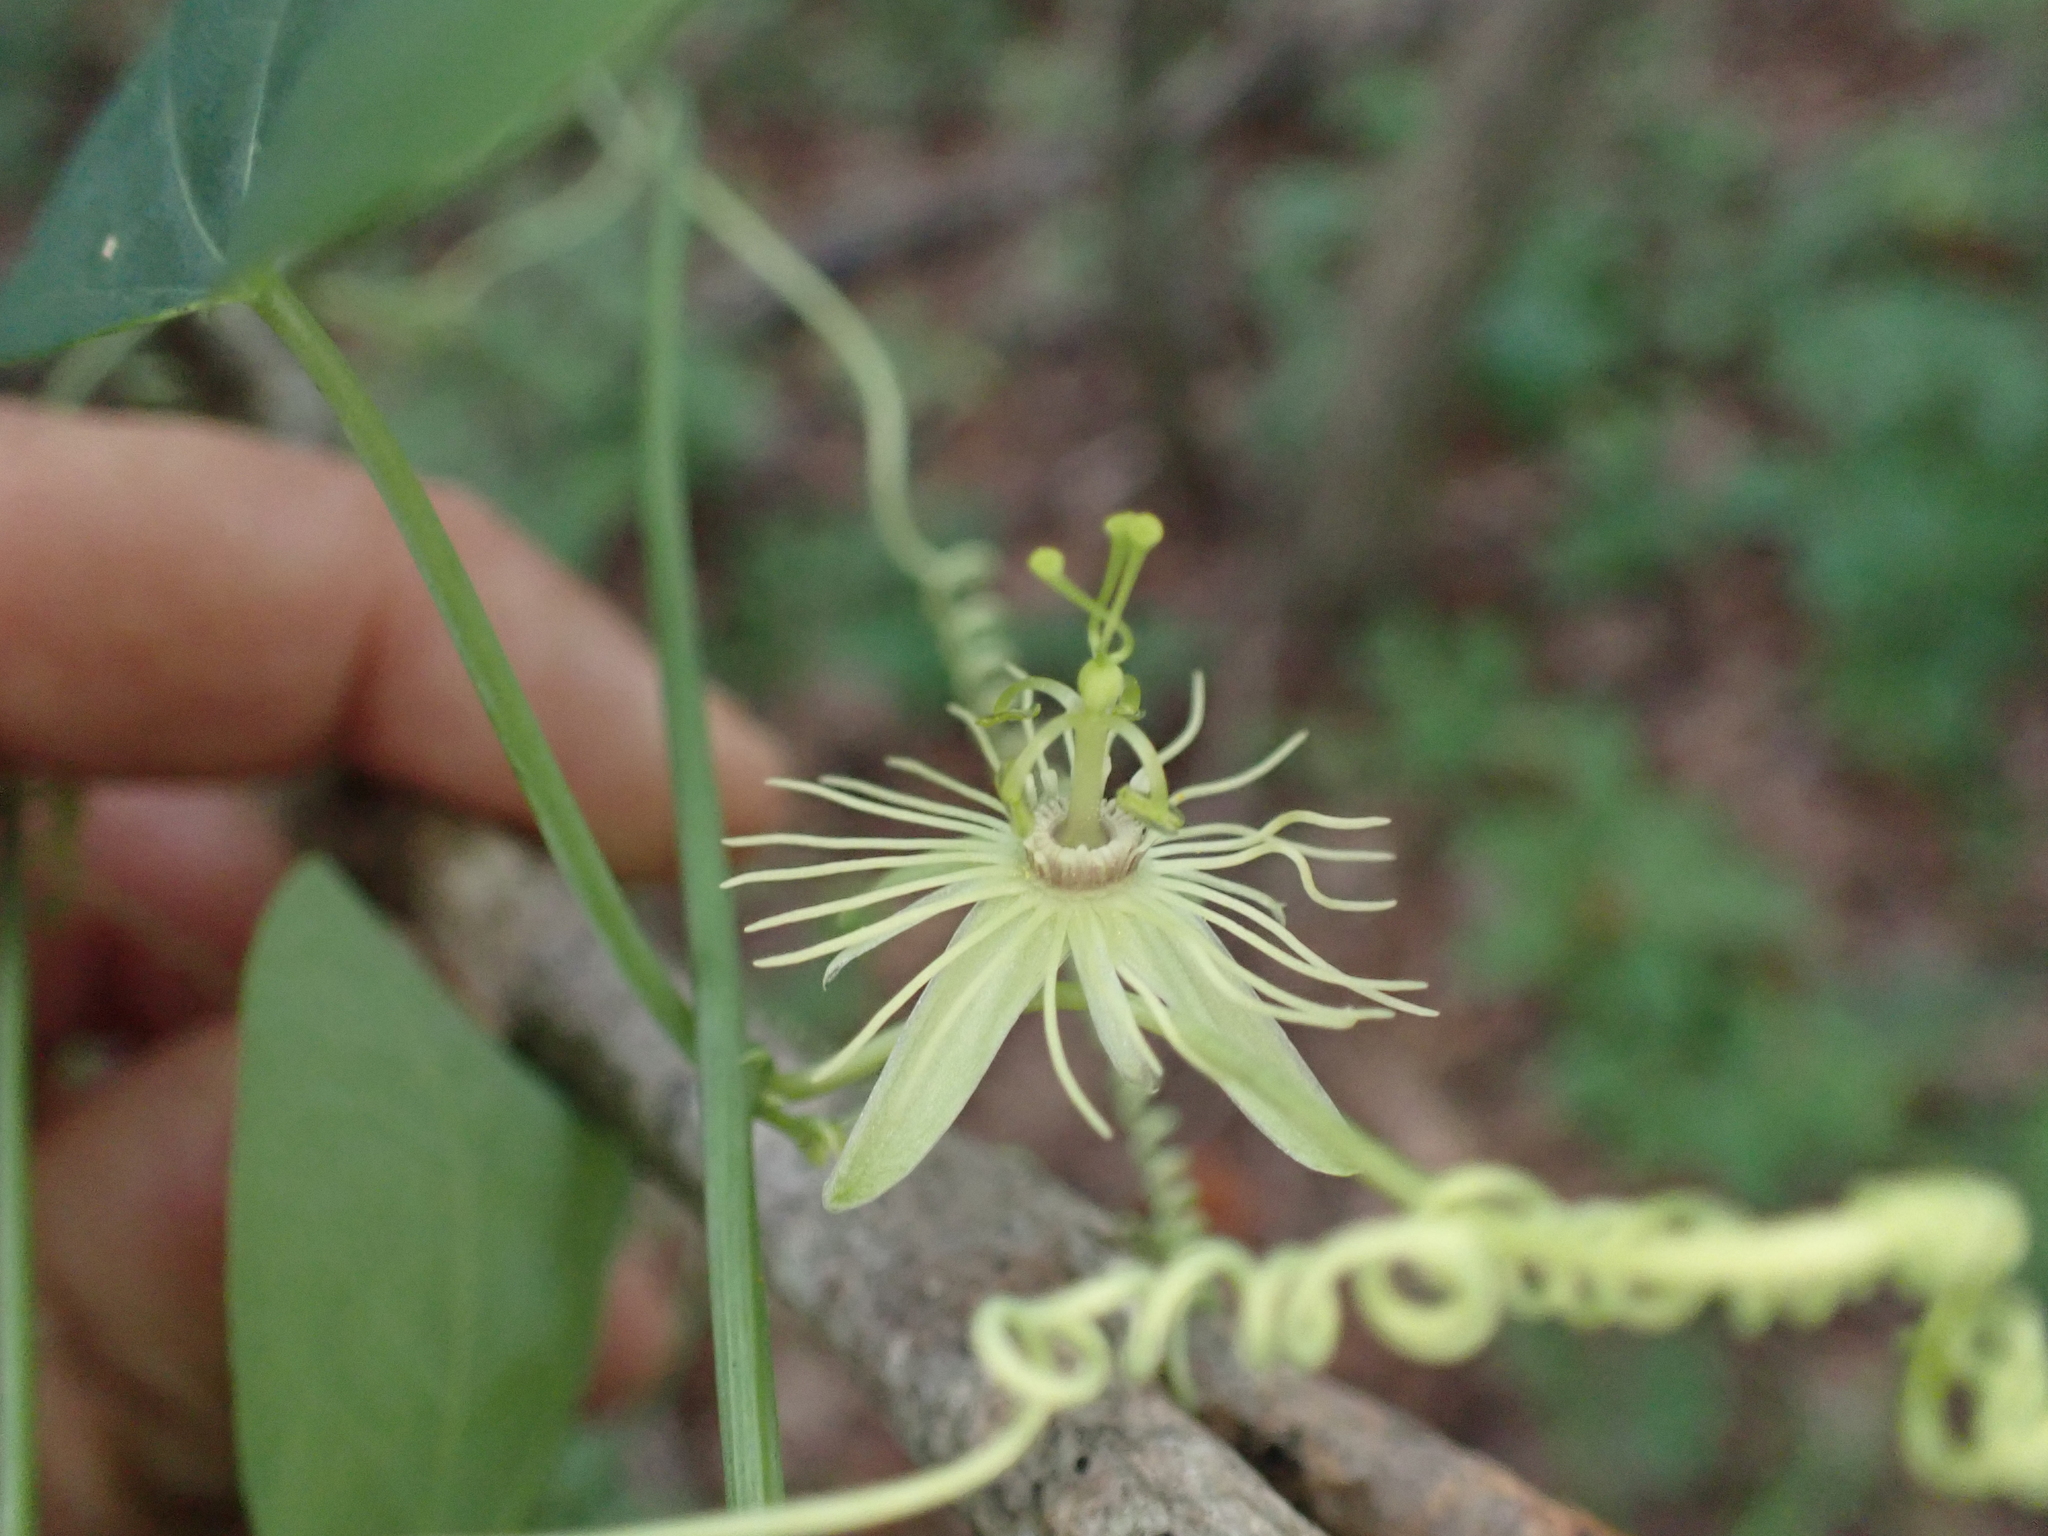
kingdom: Plantae
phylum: Tracheophyta
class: Magnoliopsida
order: Malpighiales
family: Passifloraceae
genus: Passiflora
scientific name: Passiflora lutea
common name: Yellow passionflower
